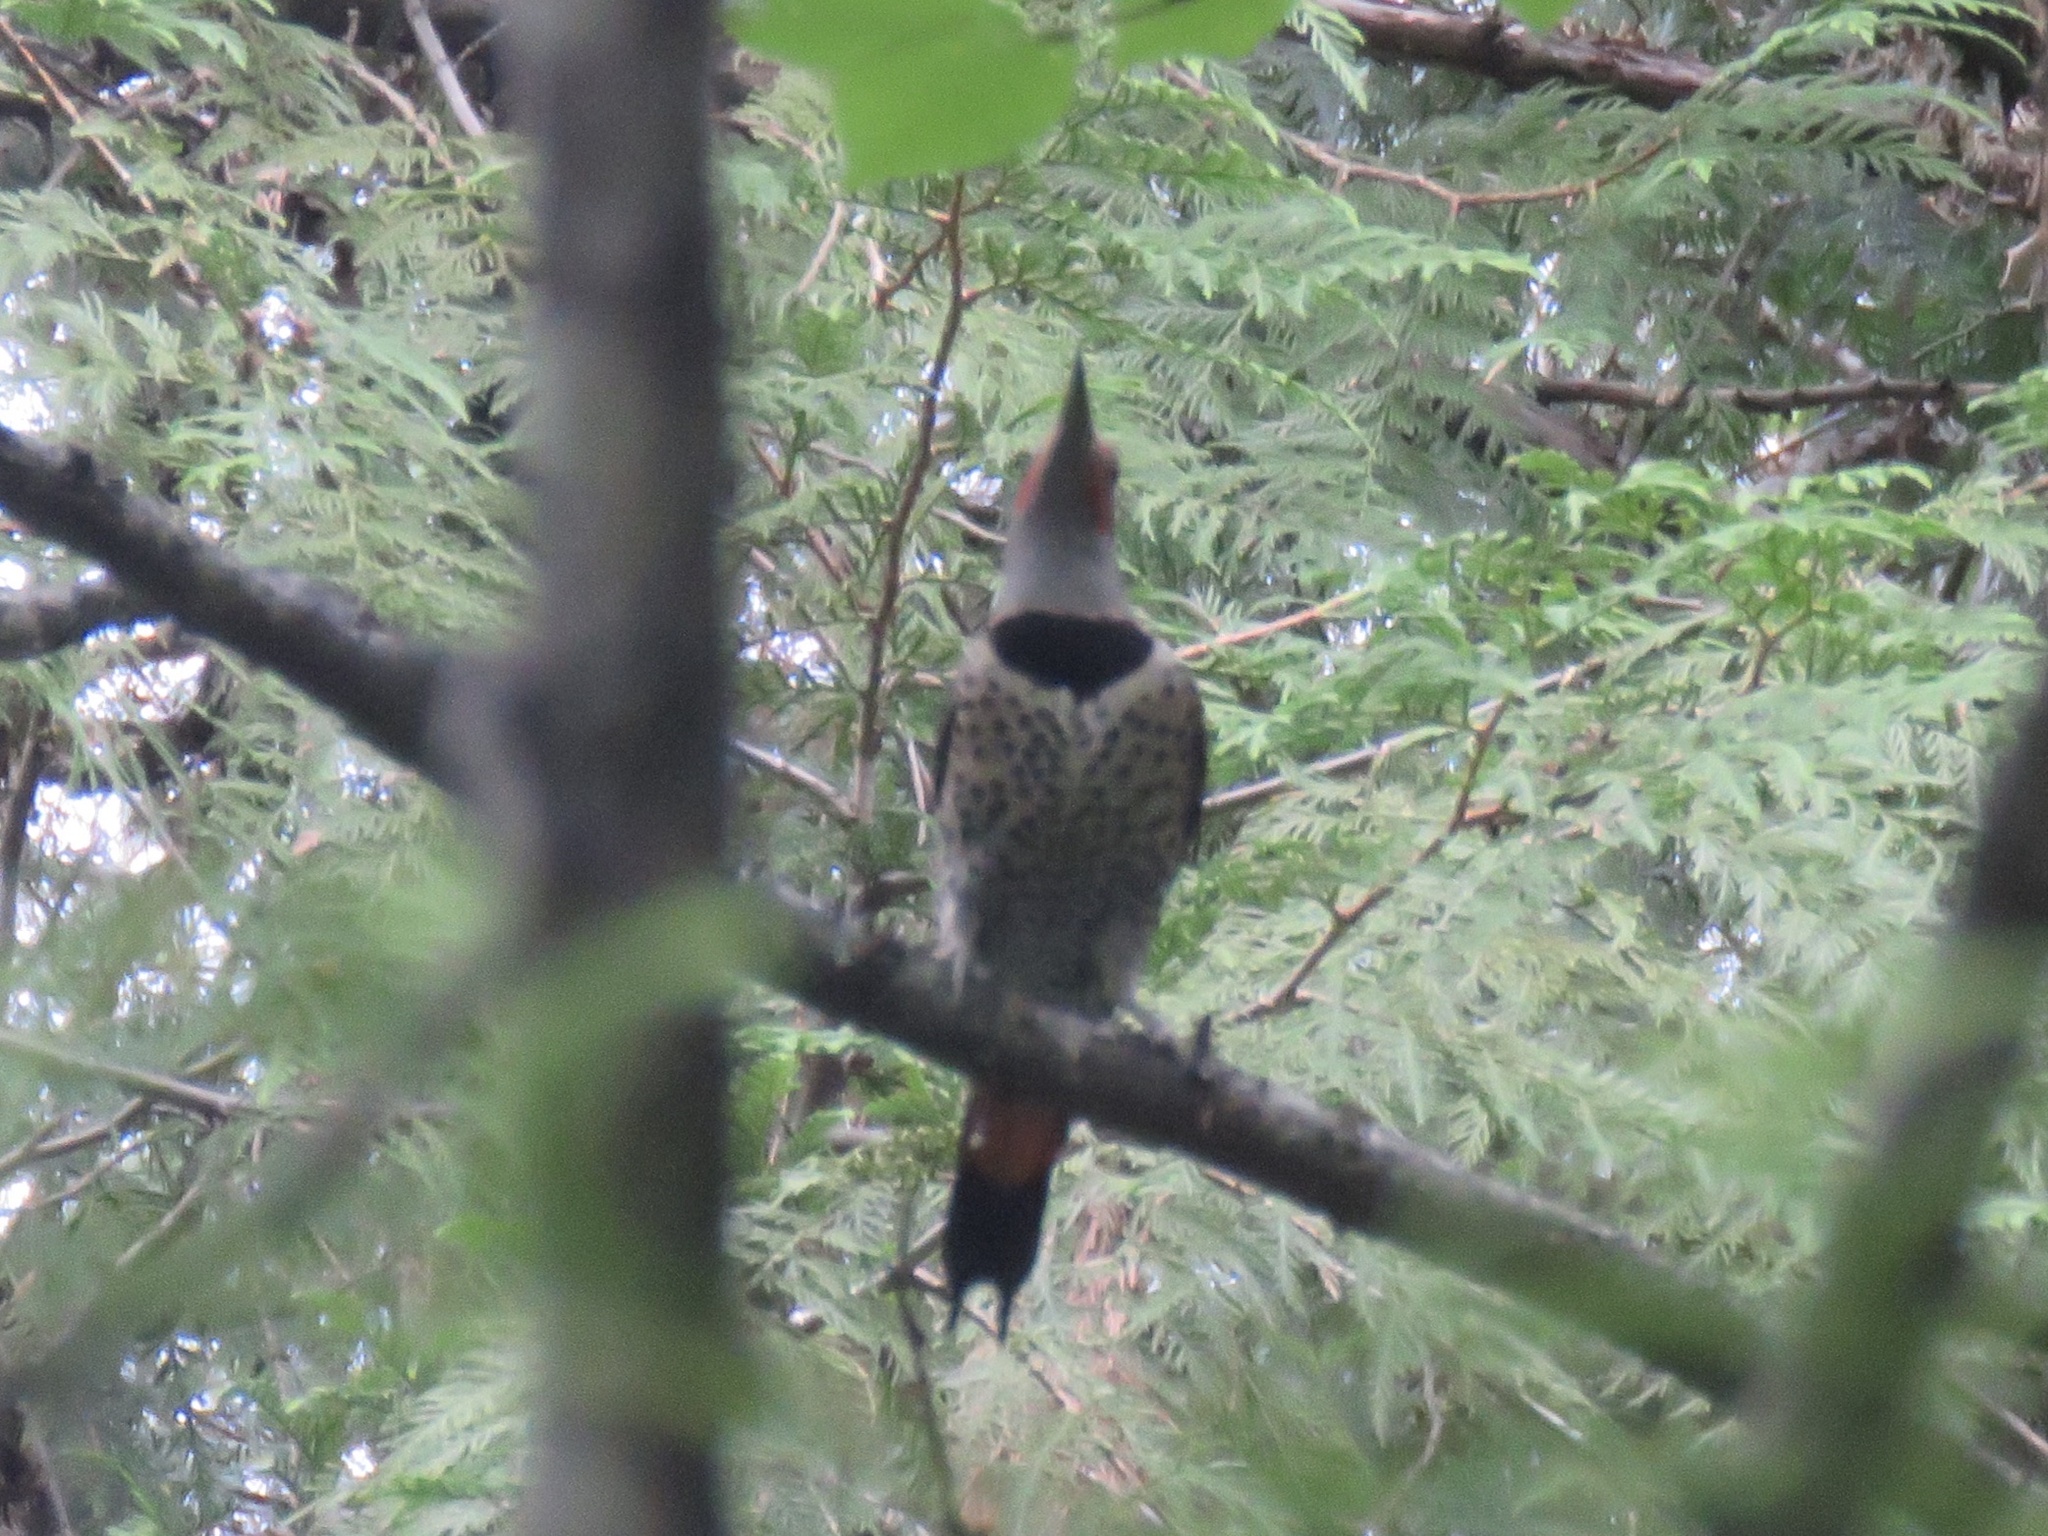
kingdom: Animalia
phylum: Chordata
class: Aves
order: Piciformes
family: Picidae
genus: Colaptes
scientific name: Colaptes auratus
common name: Northern flicker
